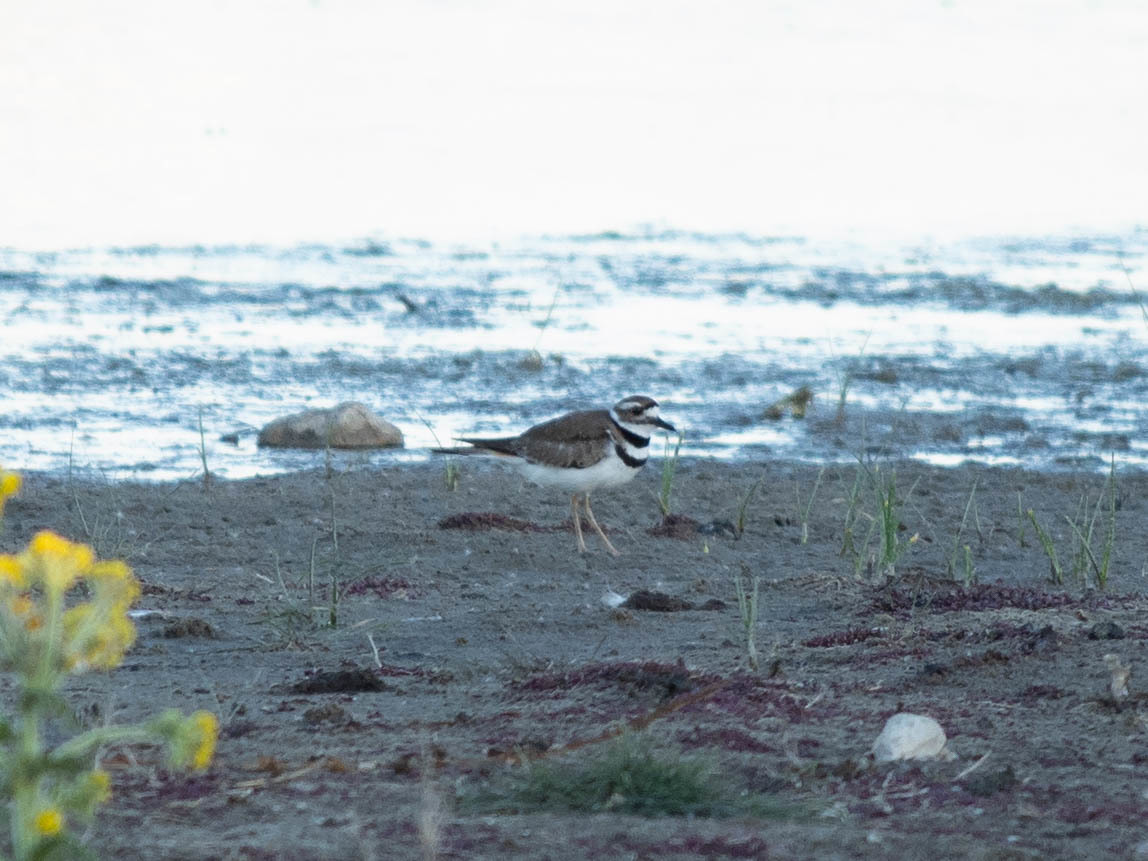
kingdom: Animalia
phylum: Chordata
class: Aves
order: Charadriiformes
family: Charadriidae
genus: Charadrius
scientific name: Charadrius vociferus
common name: Killdeer
